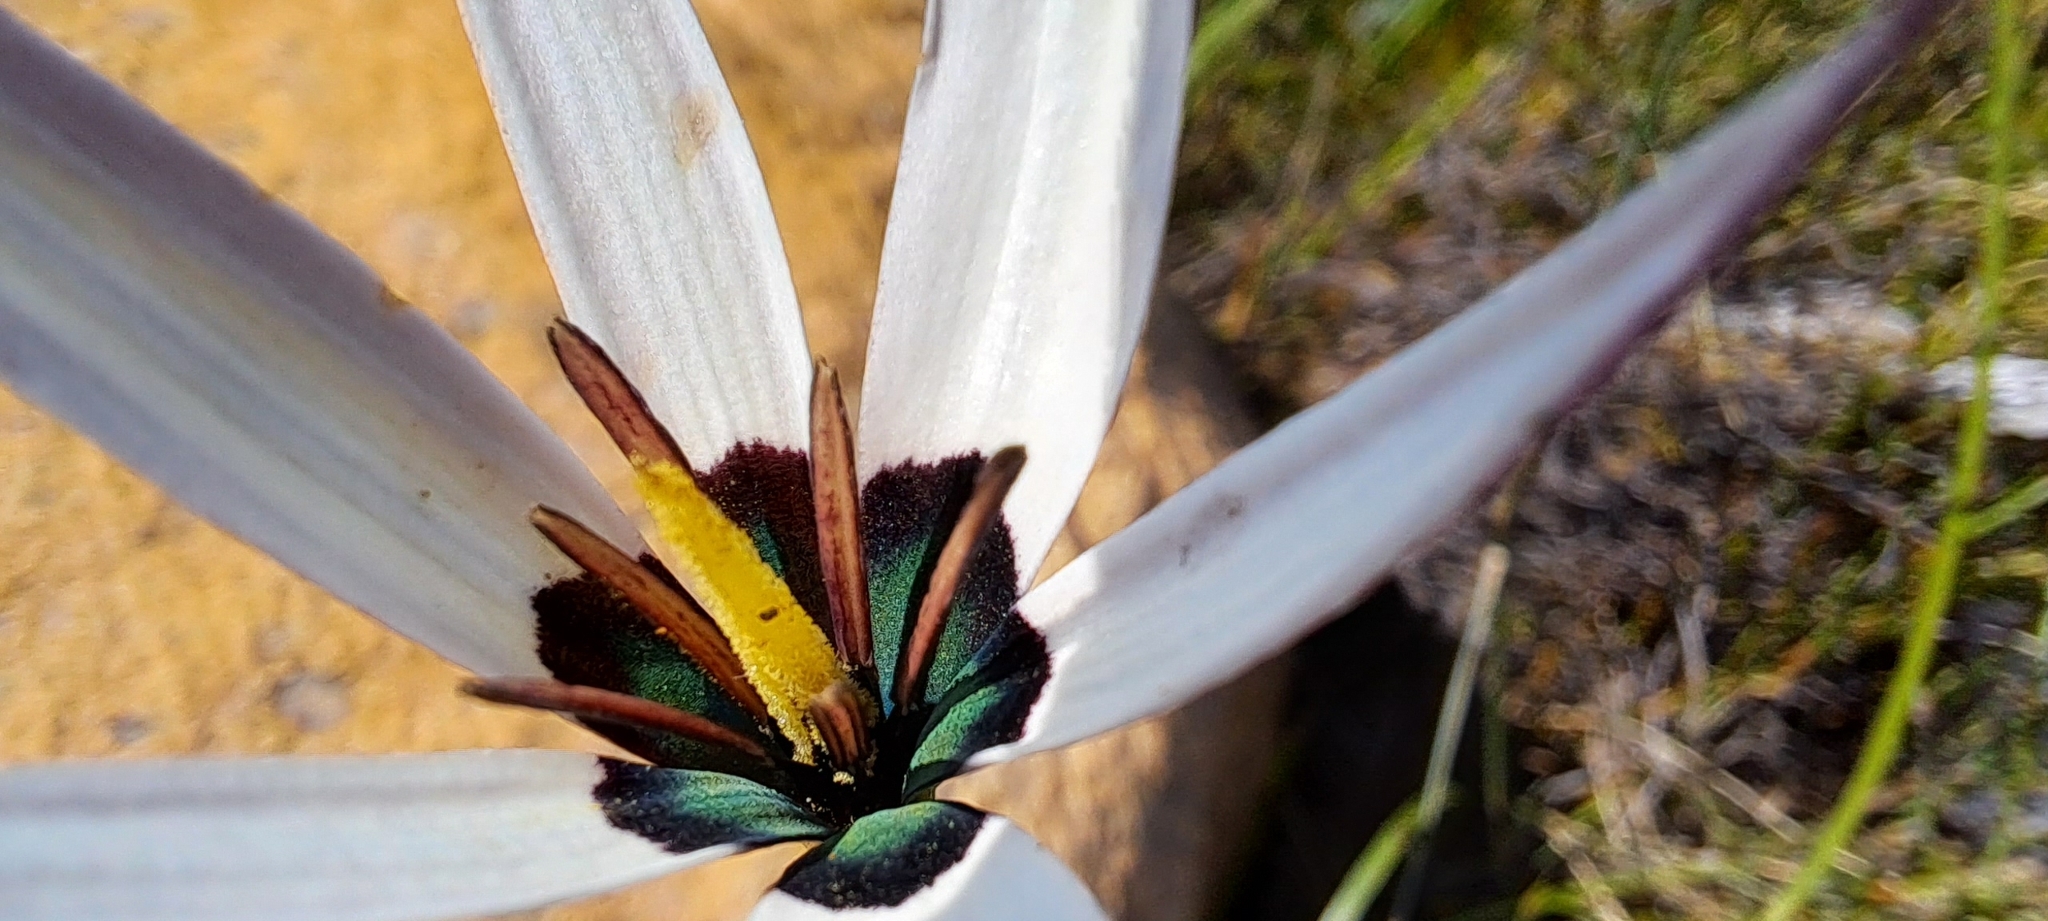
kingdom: Plantae
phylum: Tracheophyta
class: Liliopsida
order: Asparagales
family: Hypoxidaceae
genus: Pauridia
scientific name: Pauridia capensis
